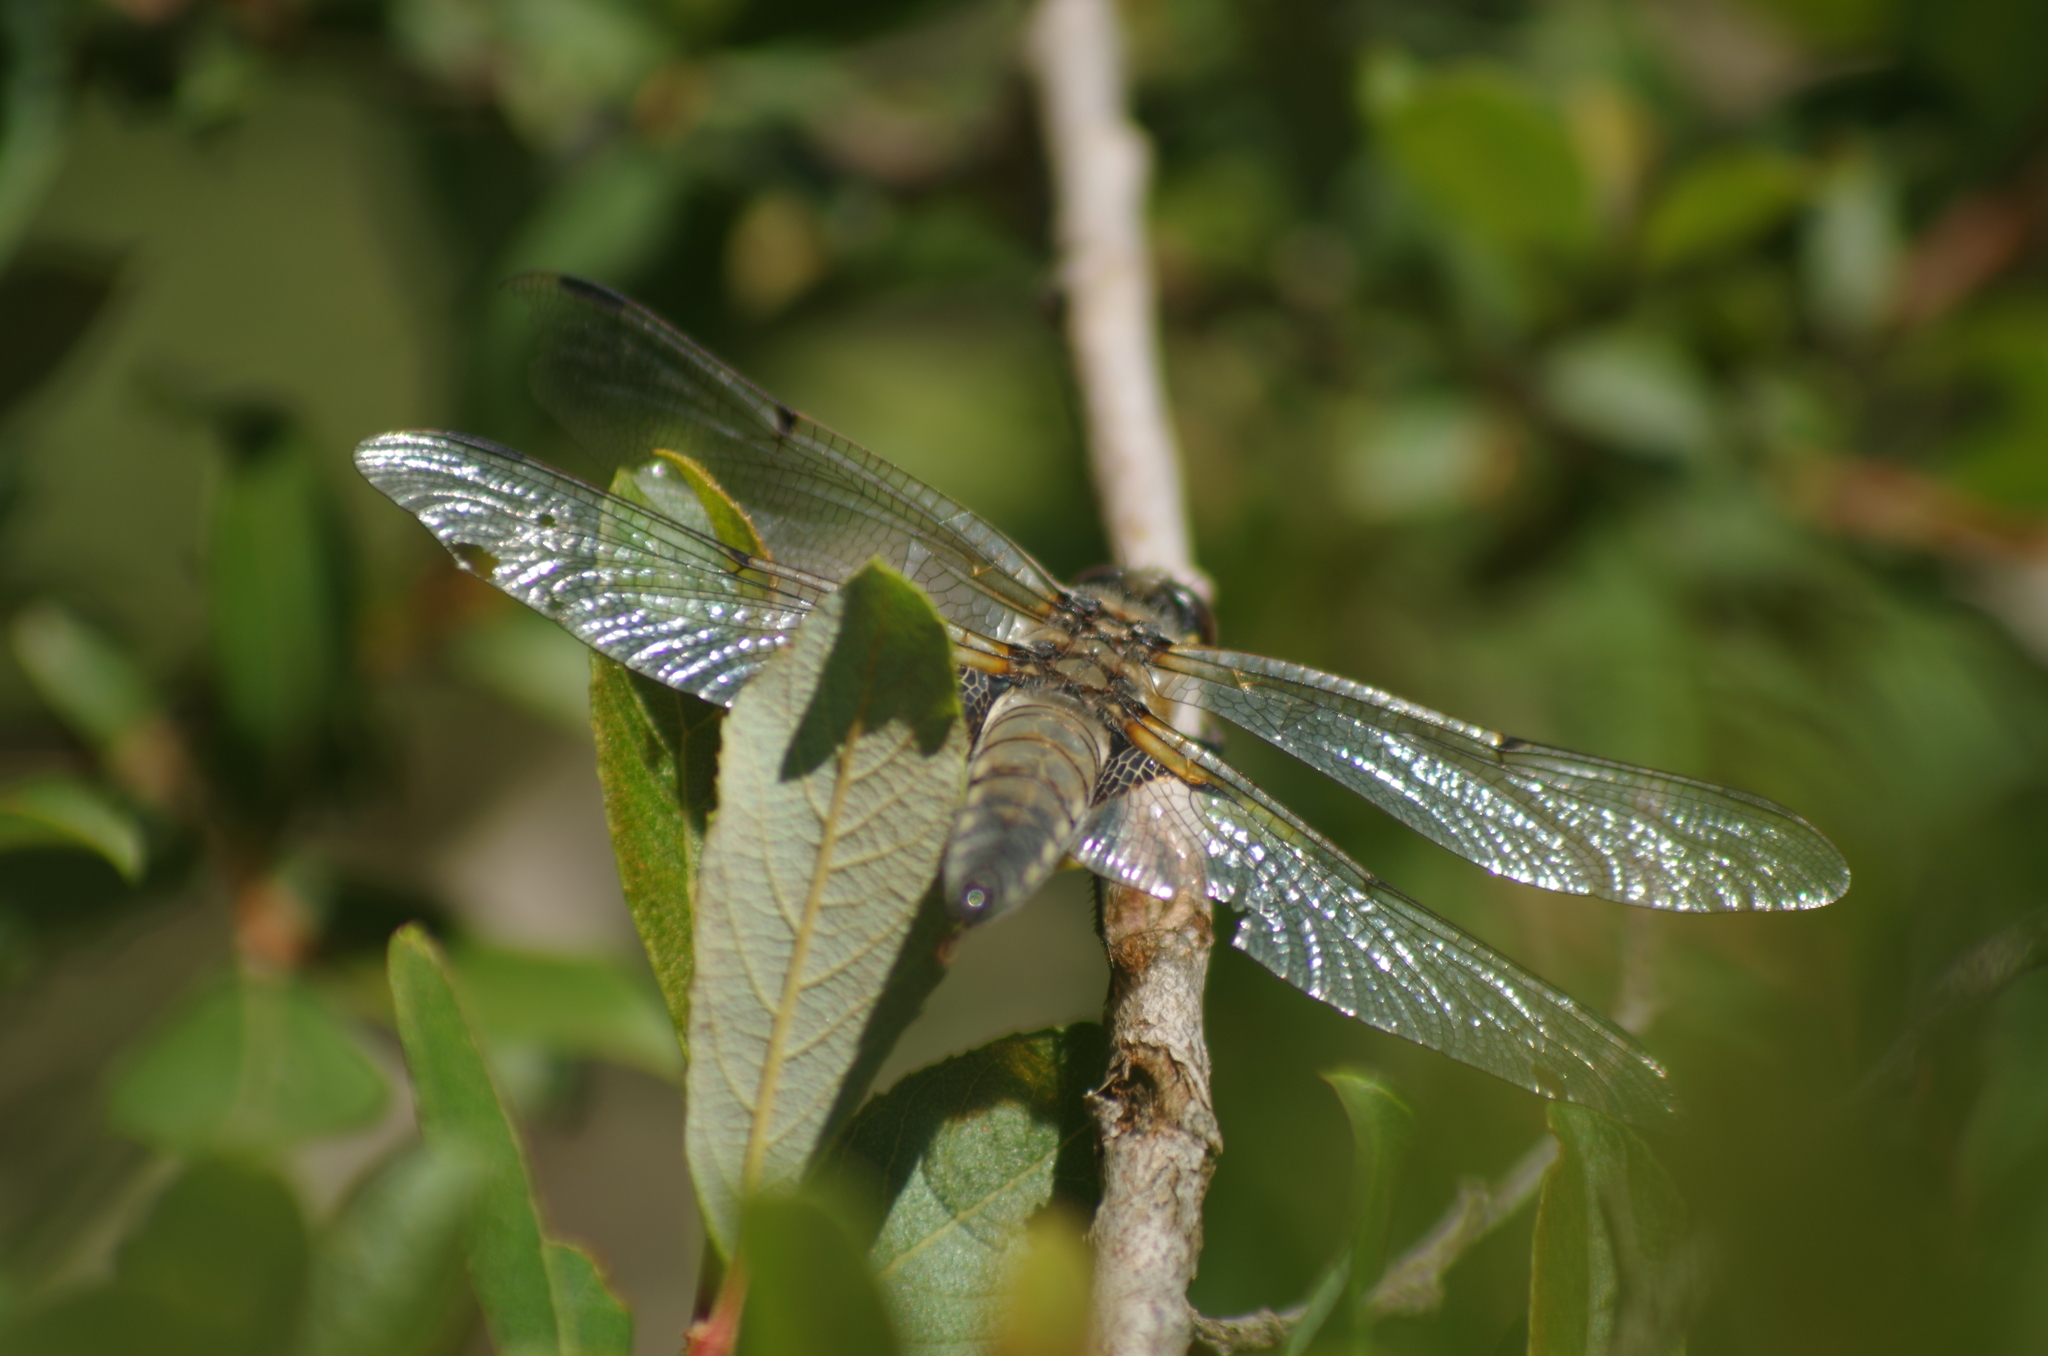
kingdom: Animalia
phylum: Arthropoda
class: Insecta
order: Odonata
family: Libellulidae
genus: Libellula
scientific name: Libellula quadrimaculata
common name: Four-spotted chaser
